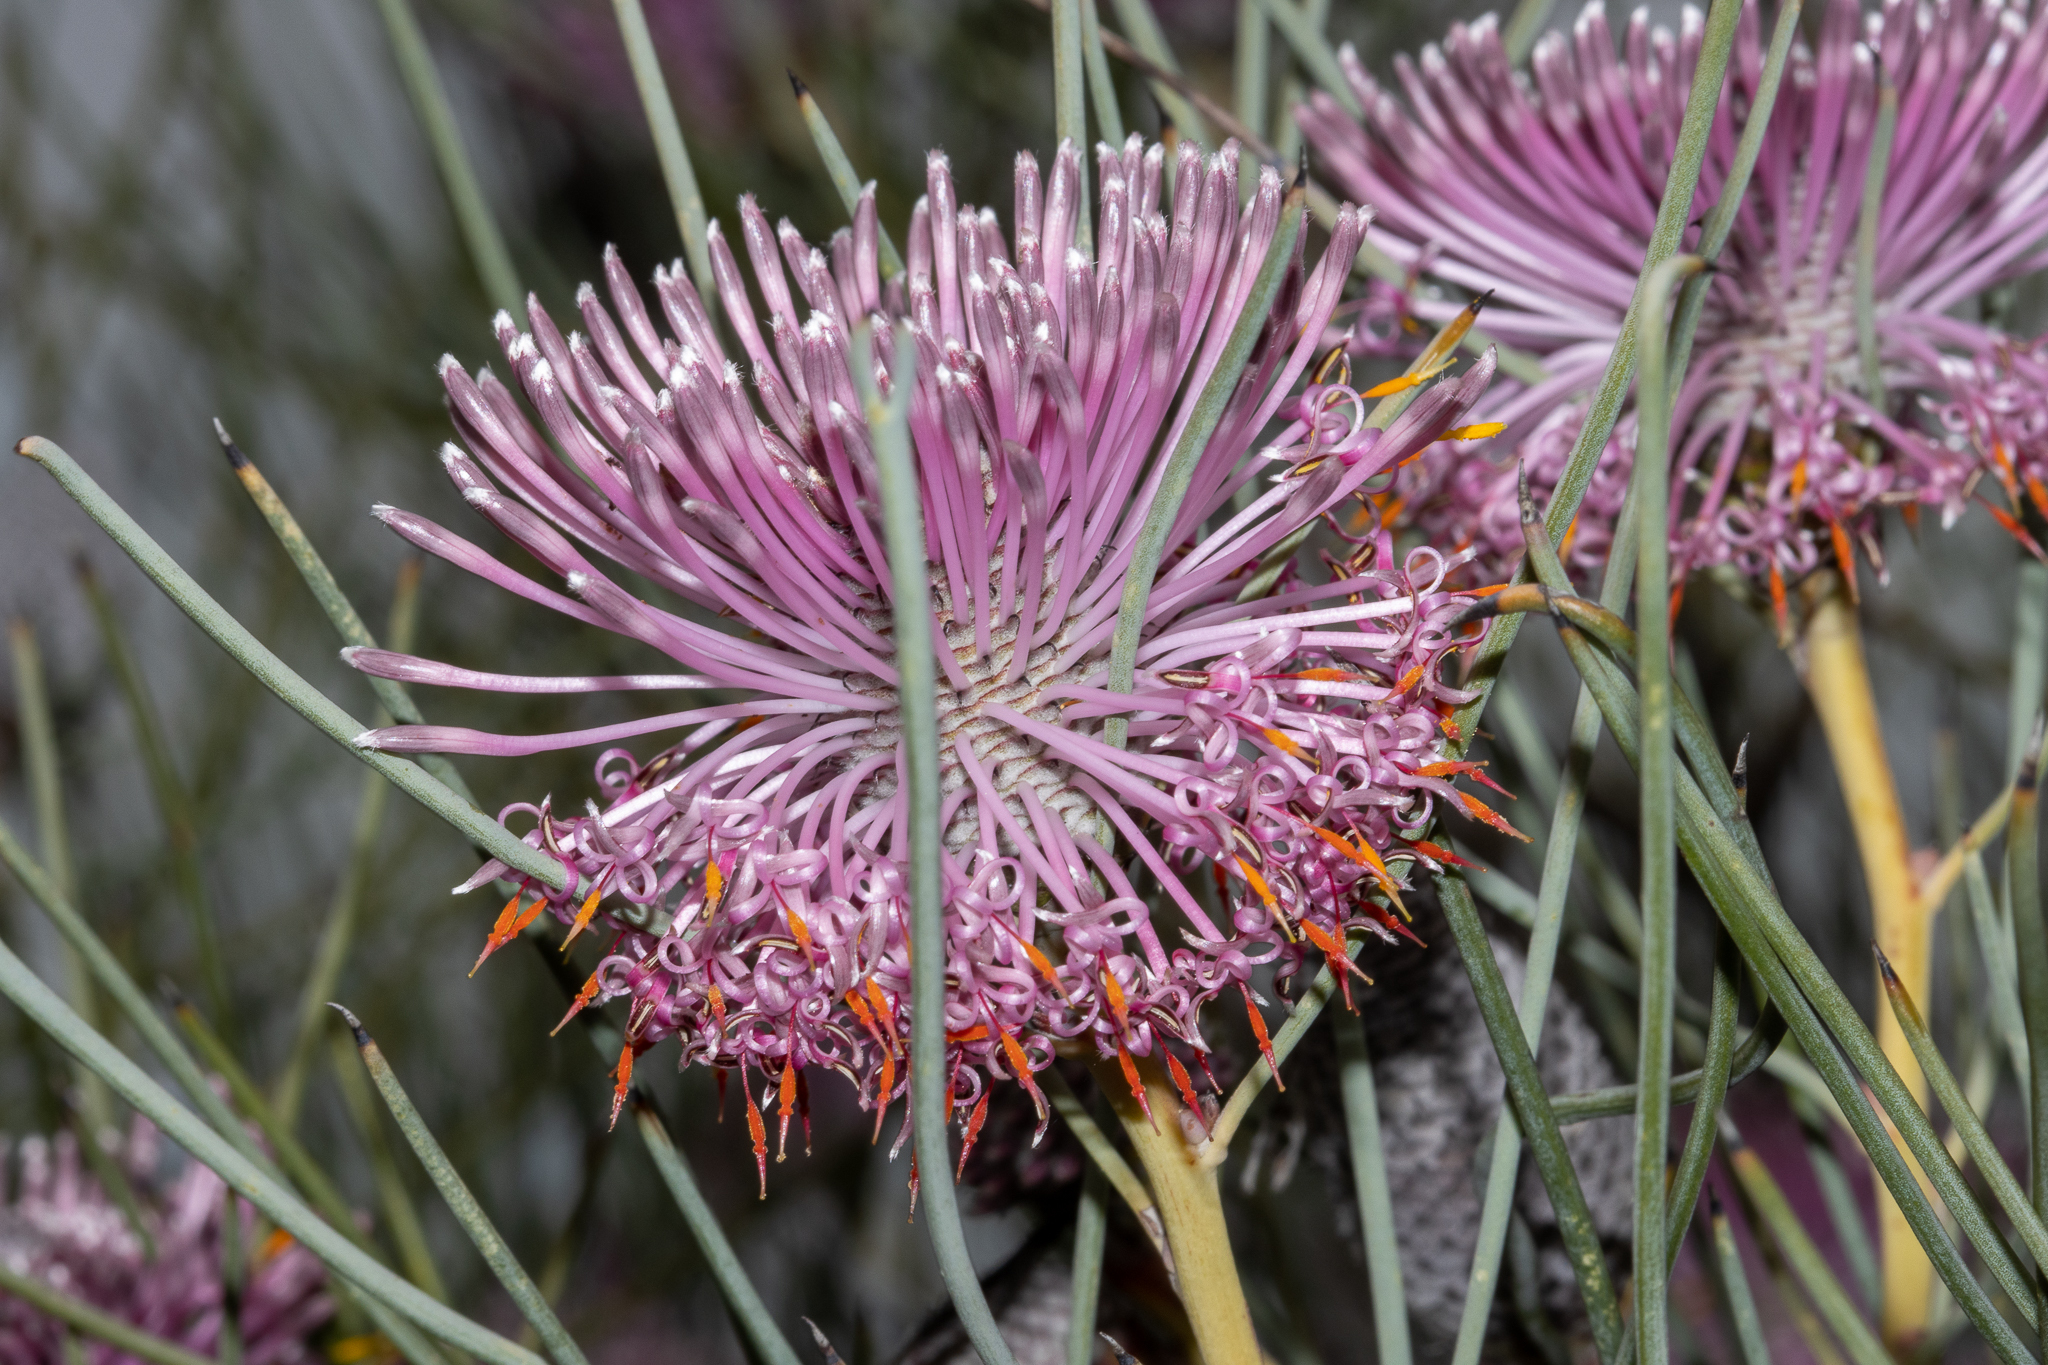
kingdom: Plantae
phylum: Tracheophyta
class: Magnoliopsida
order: Proteales
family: Proteaceae
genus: Isopogon
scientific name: Isopogon divergens
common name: Spreading-coneflower
